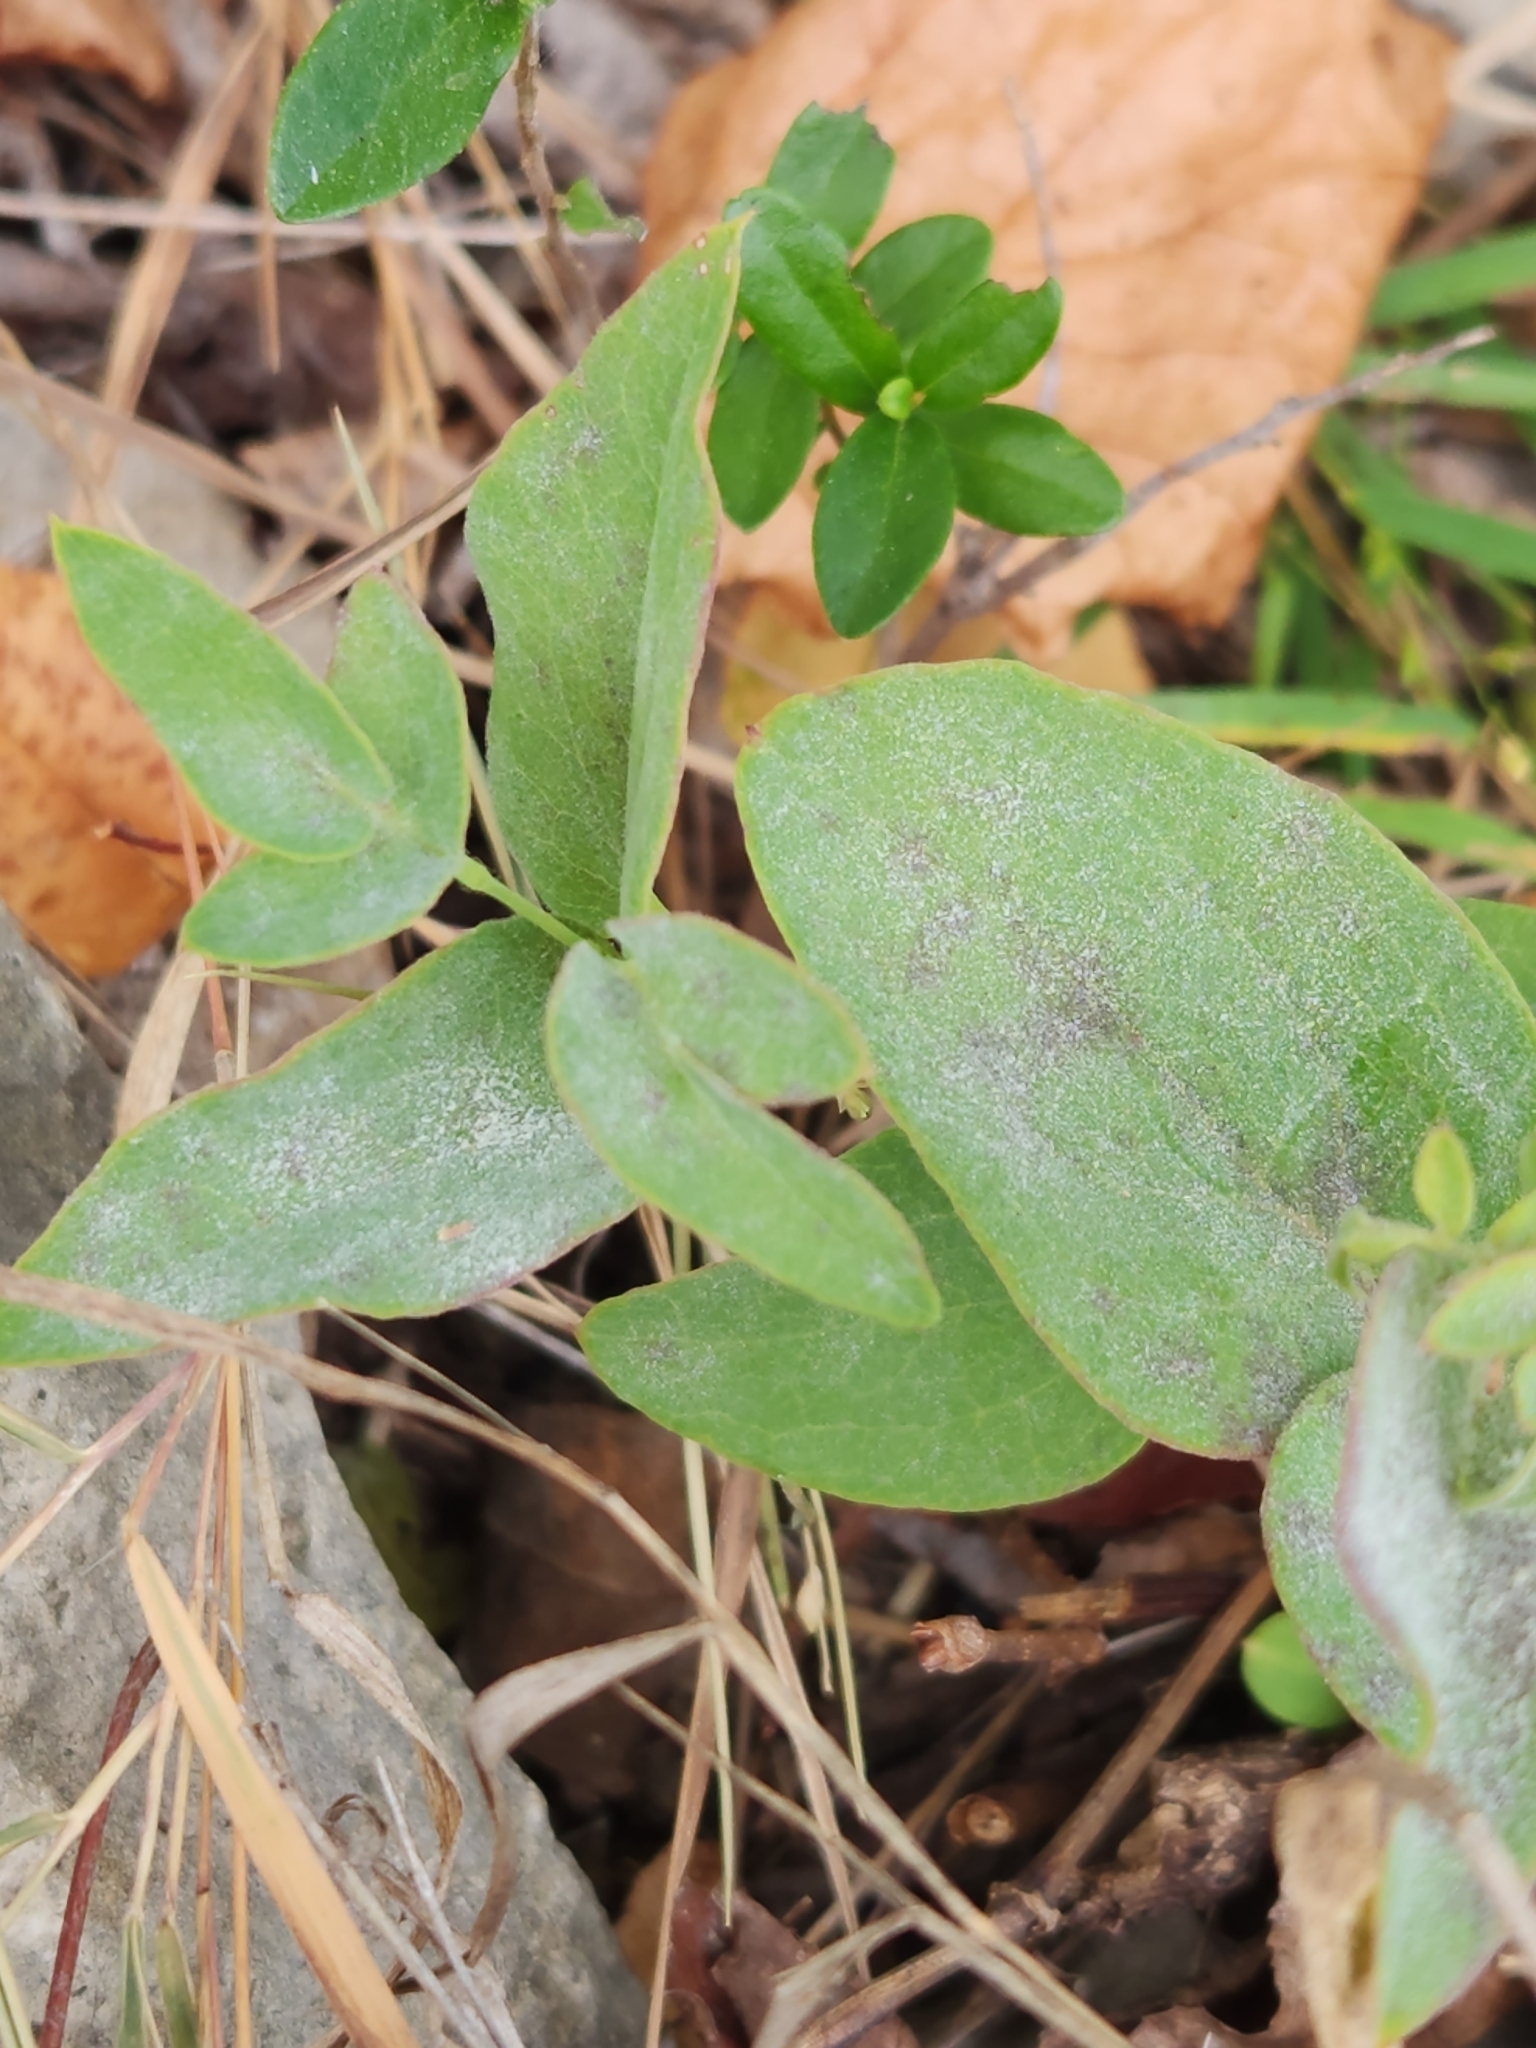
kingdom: Plantae
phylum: Tracheophyta
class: Magnoliopsida
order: Ranunculales
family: Ranunculaceae
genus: Clematis
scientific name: Clematis texensis
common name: Crimson clematis
